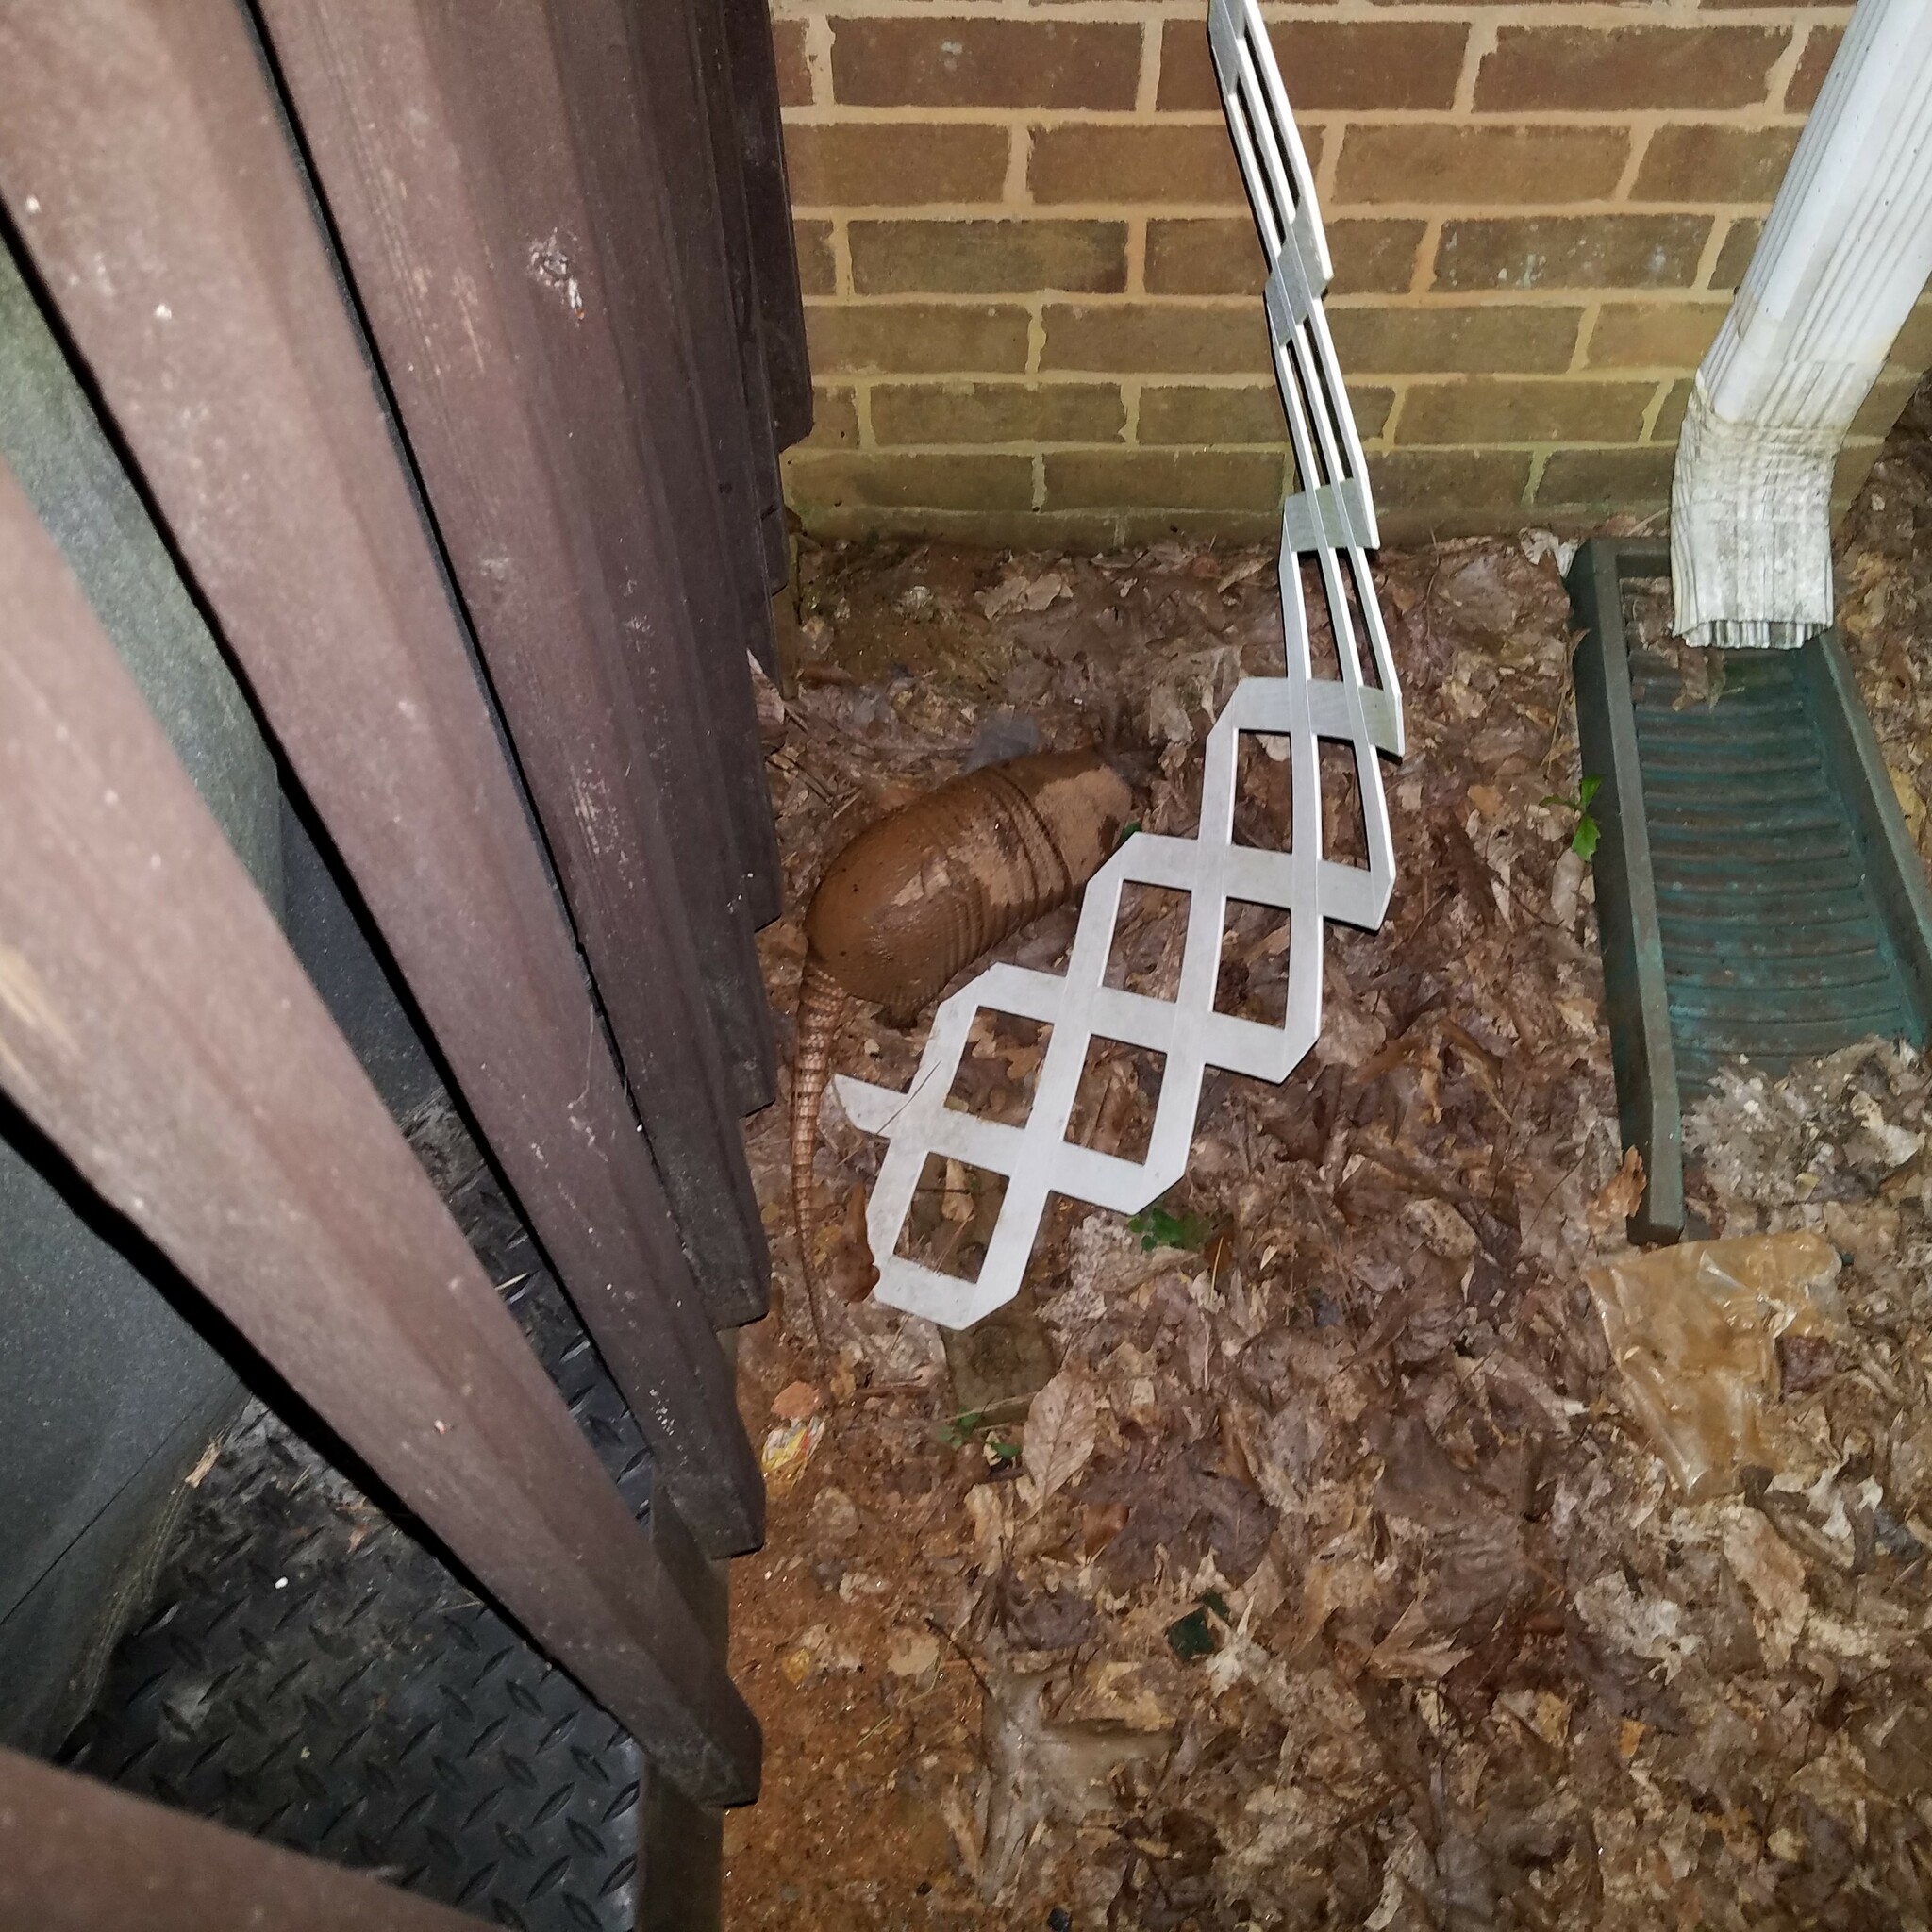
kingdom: Animalia
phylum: Chordata
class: Mammalia
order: Cingulata
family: Dasypodidae
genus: Dasypus
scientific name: Dasypus novemcinctus
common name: Nine-banded armadillo
